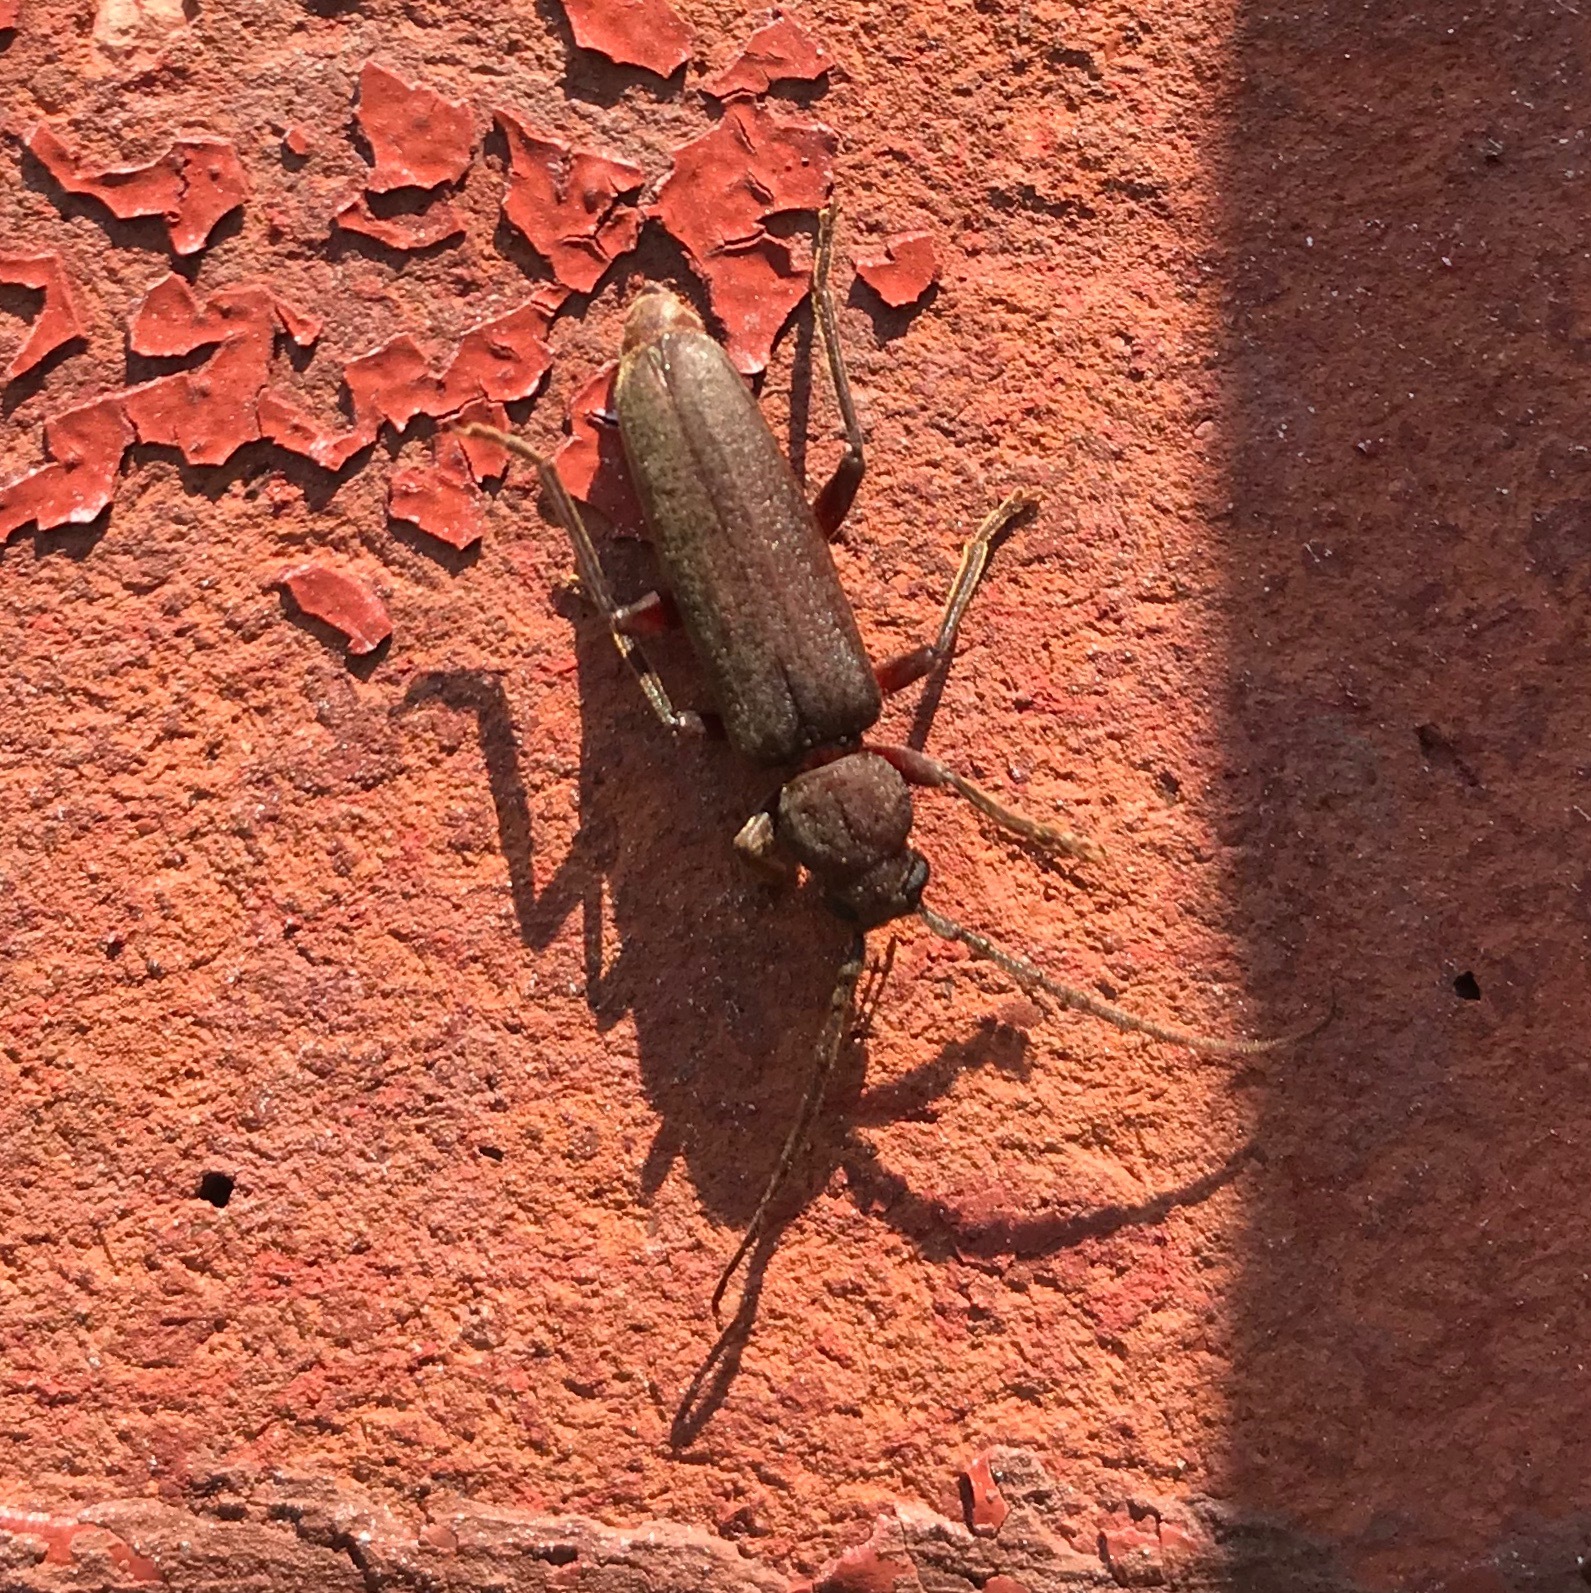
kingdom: Animalia
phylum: Arthropoda
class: Insecta
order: Coleoptera
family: Cerambycidae
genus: Arhopalus
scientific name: Arhopalus rusticus
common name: Rust pine borer
